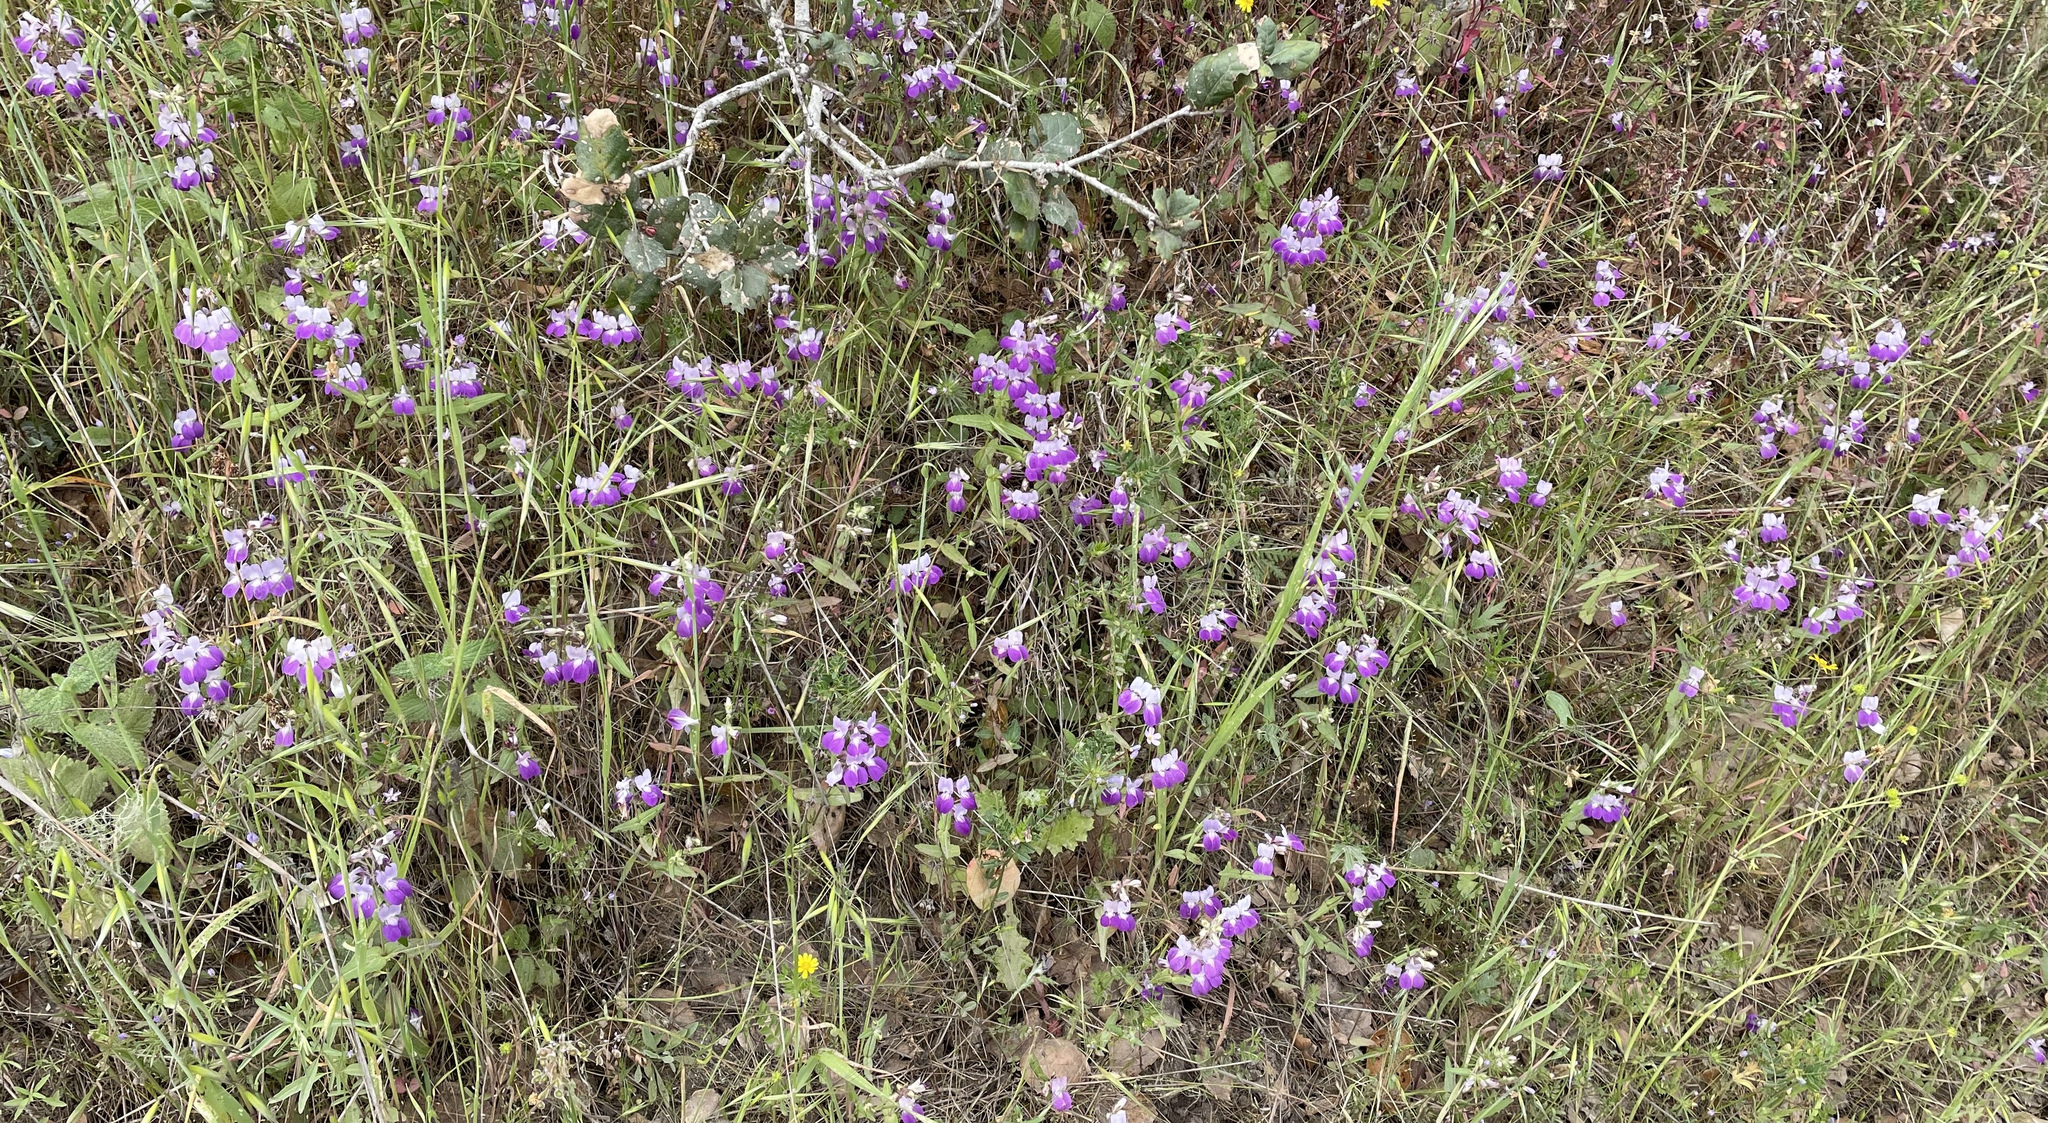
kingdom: Plantae
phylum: Tracheophyta
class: Magnoliopsida
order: Lamiales
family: Plantaginaceae
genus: Collinsia
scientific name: Collinsia heterophylla
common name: Chinese-houses
